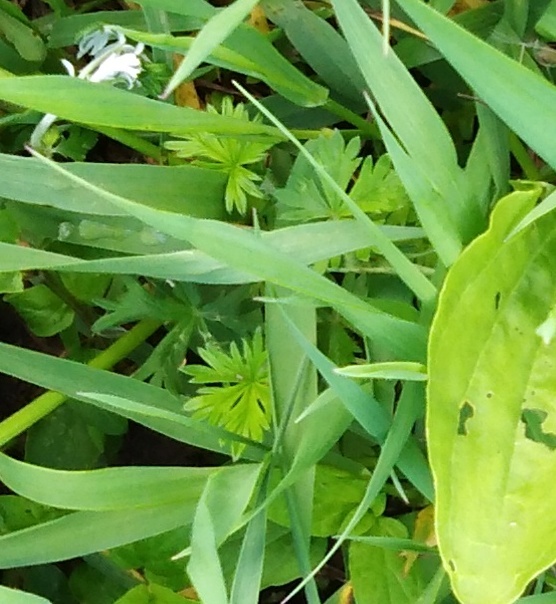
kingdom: Plantae
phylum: Tracheophyta
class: Magnoliopsida
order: Rosales
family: Rosaceae
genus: Potentilla
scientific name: Potentilla argentea
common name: Hoary cinquefoil
